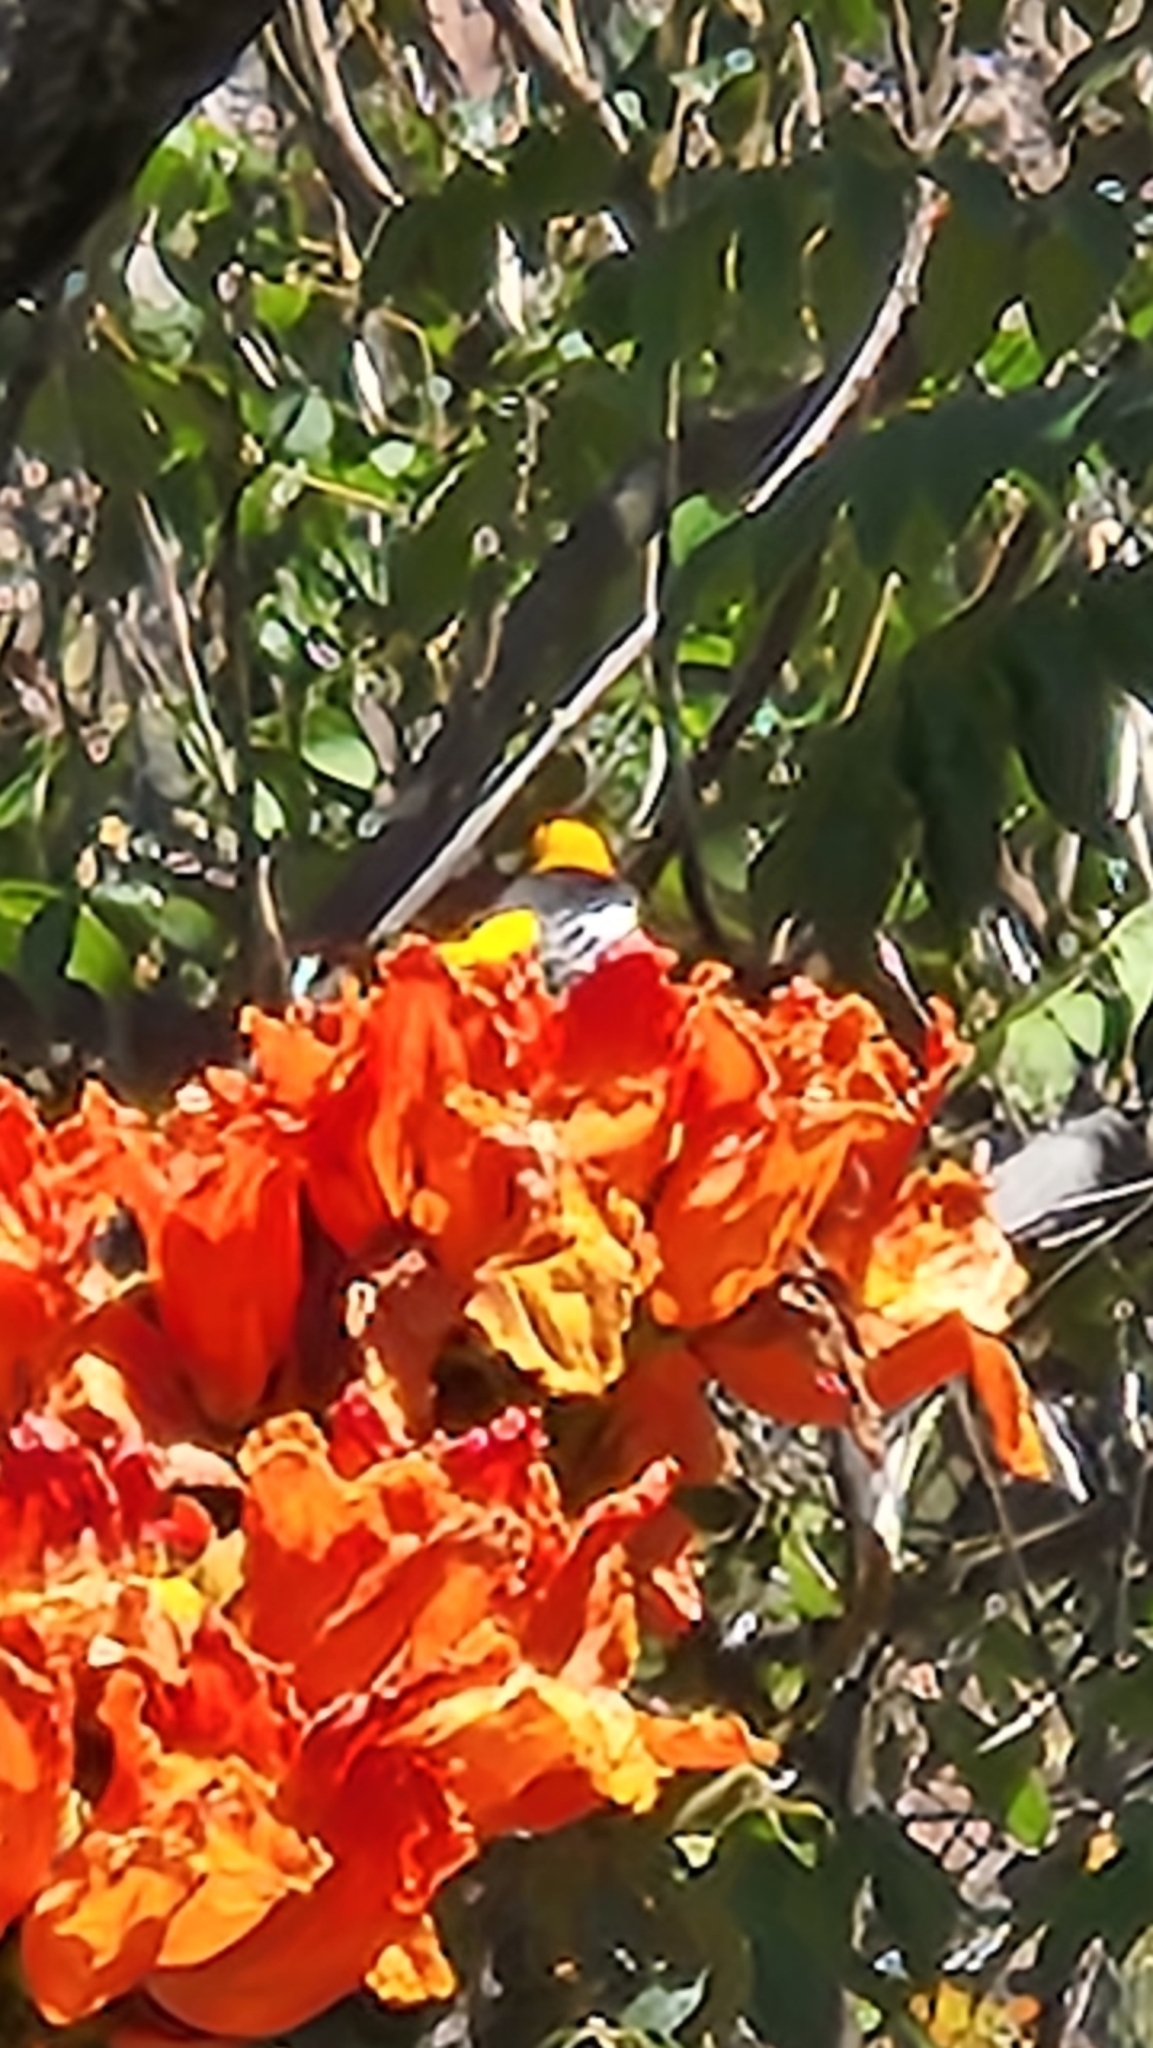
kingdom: Plantae
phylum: Tracheophyta
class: Magnoliopsida
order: Lamiales
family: Bignoniaceae
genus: Spathodea
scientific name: Spathodea campanulata
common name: African tuliptree
